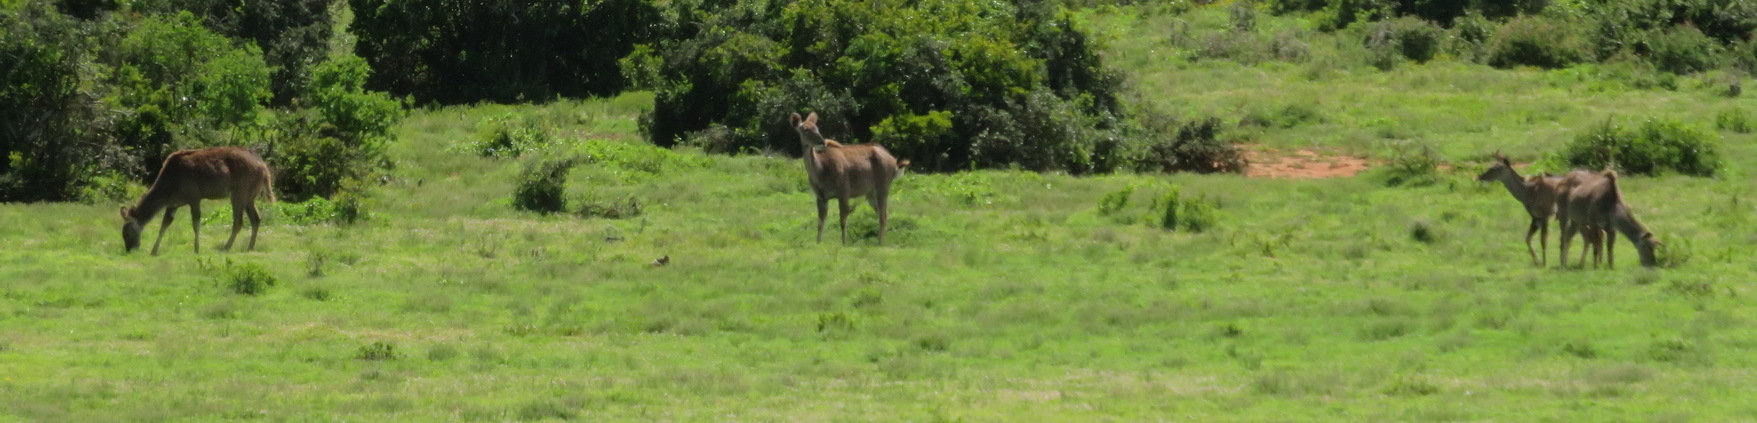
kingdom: Animalia
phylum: Chordata
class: Mammalia
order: Artiodactyla
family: Bovidae
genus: Tragelaphus
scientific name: Tragelaphus strepsiceros
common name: Greater kudu
